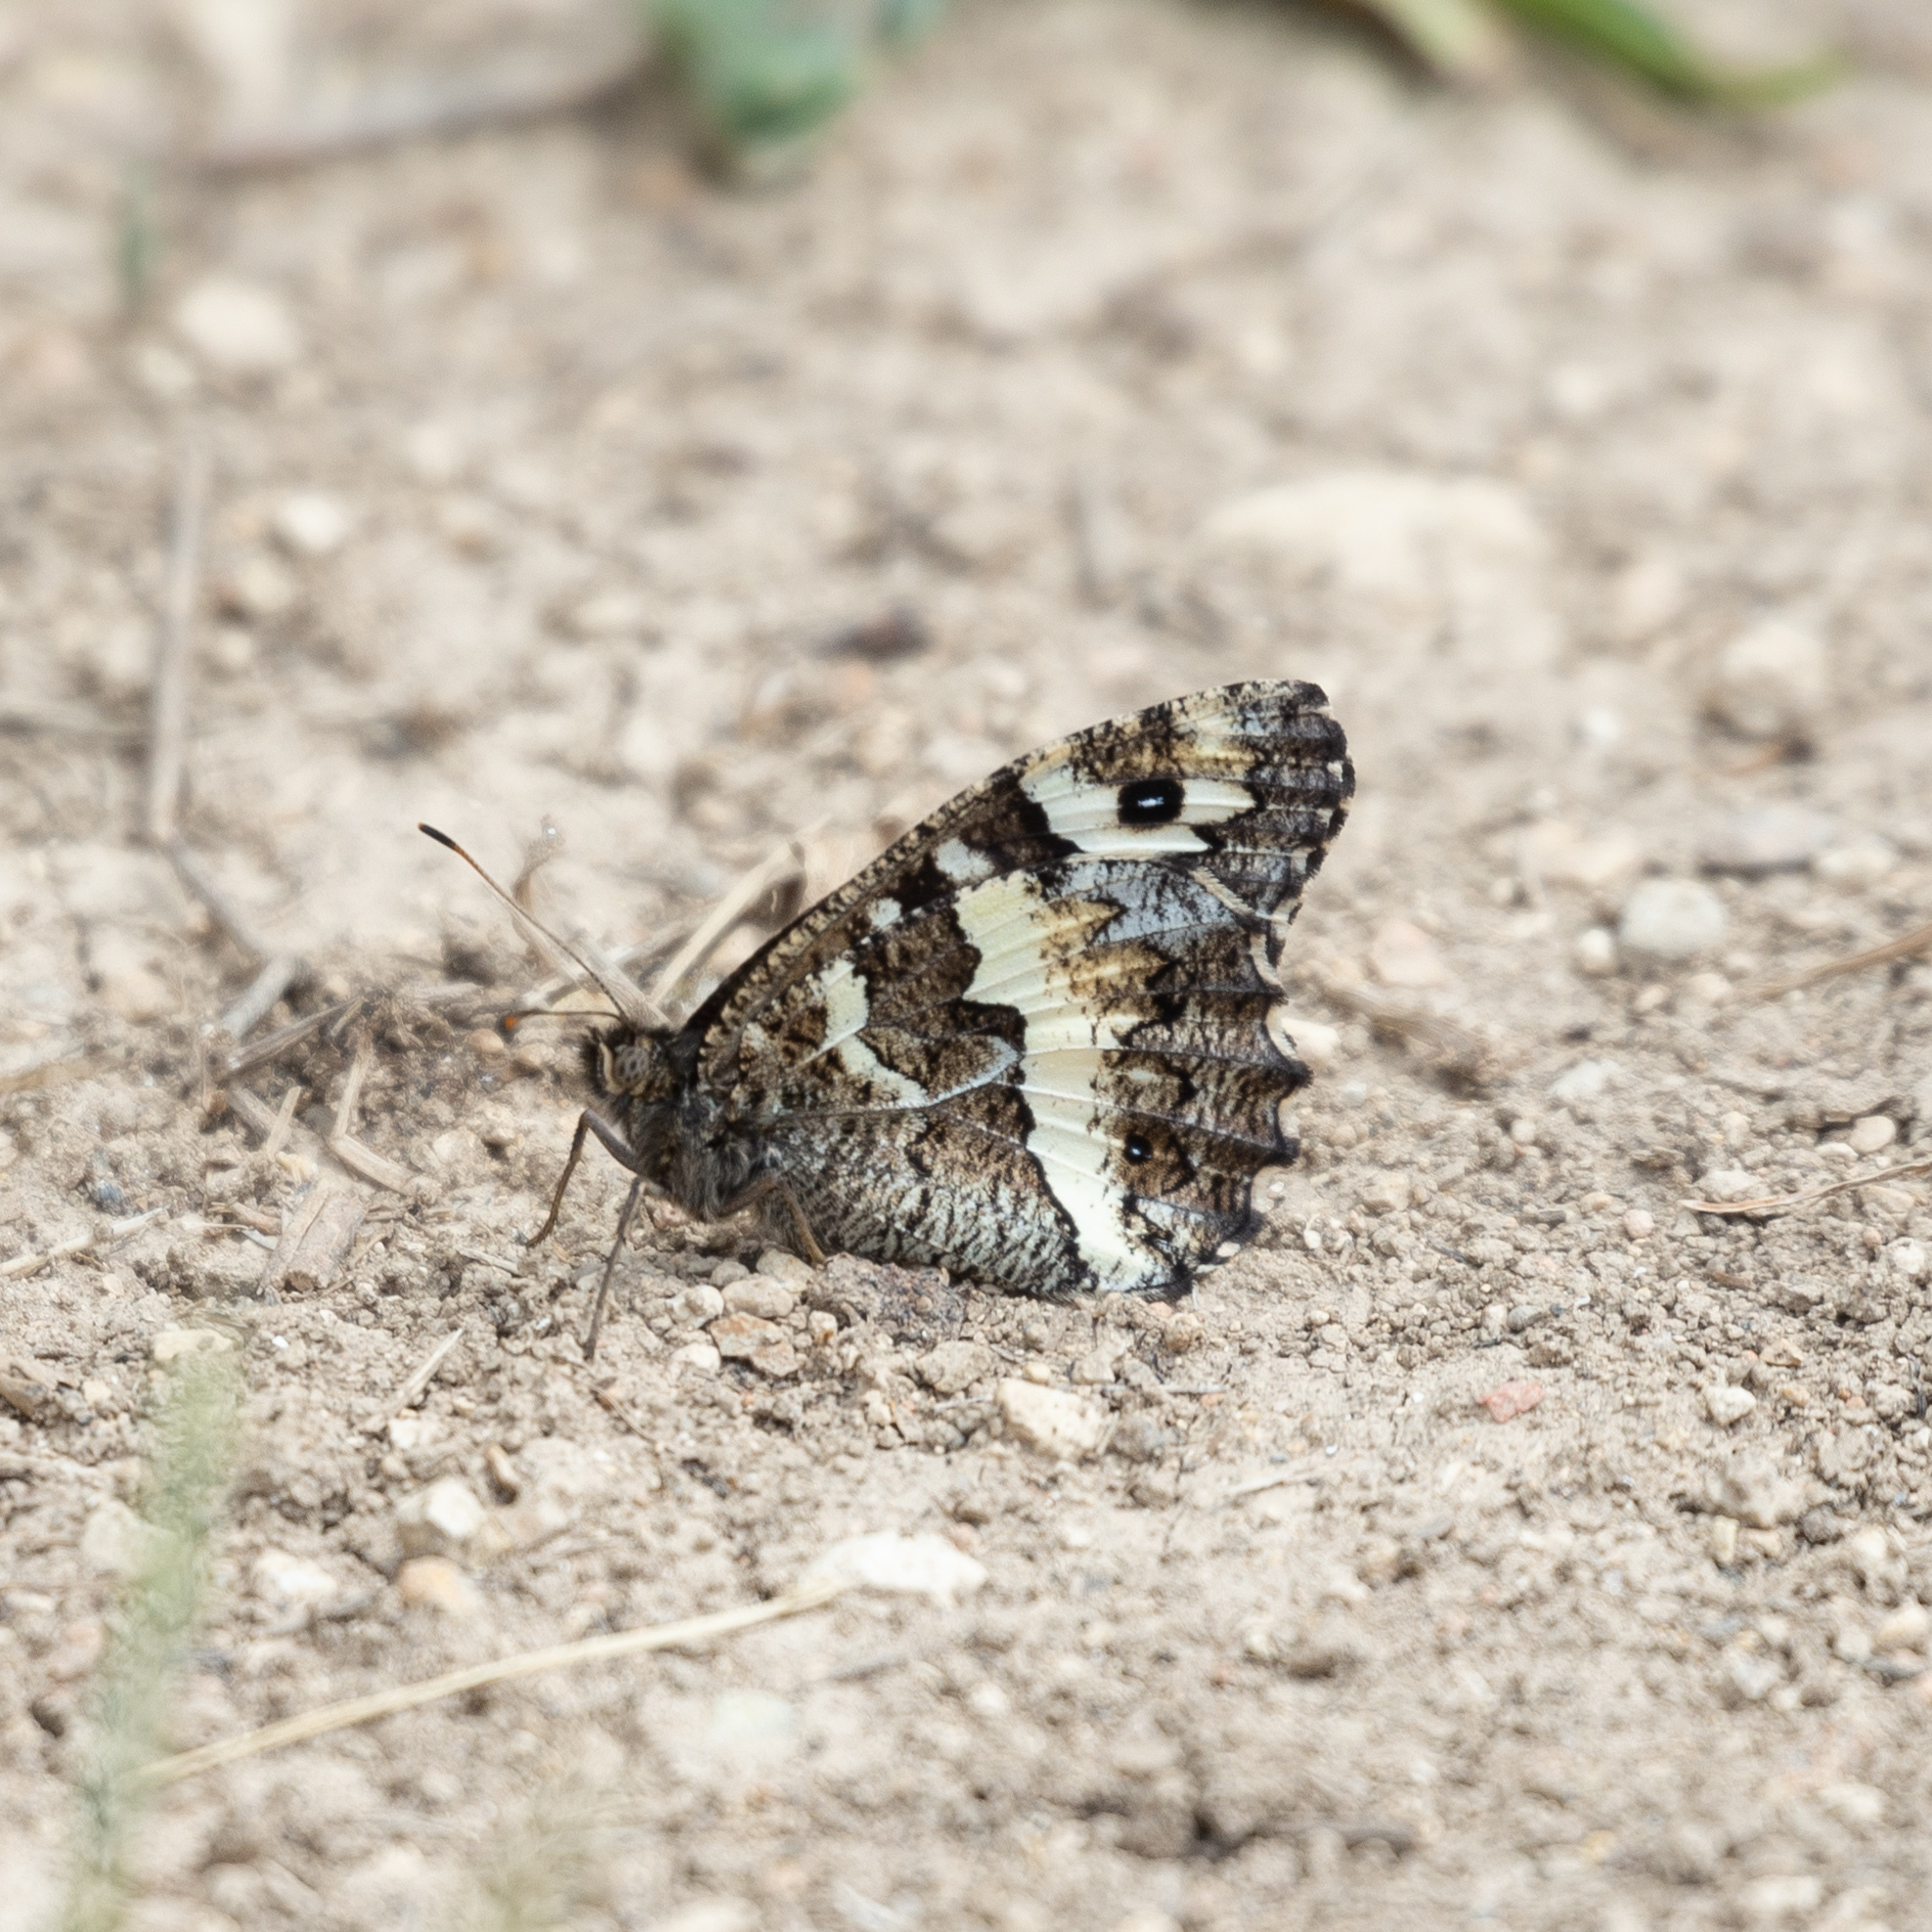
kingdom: Animalia
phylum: Arthropoda
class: Insecta
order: Lepidoptera
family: Lycaenidae
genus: Loweia
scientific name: Loweia tityrus
